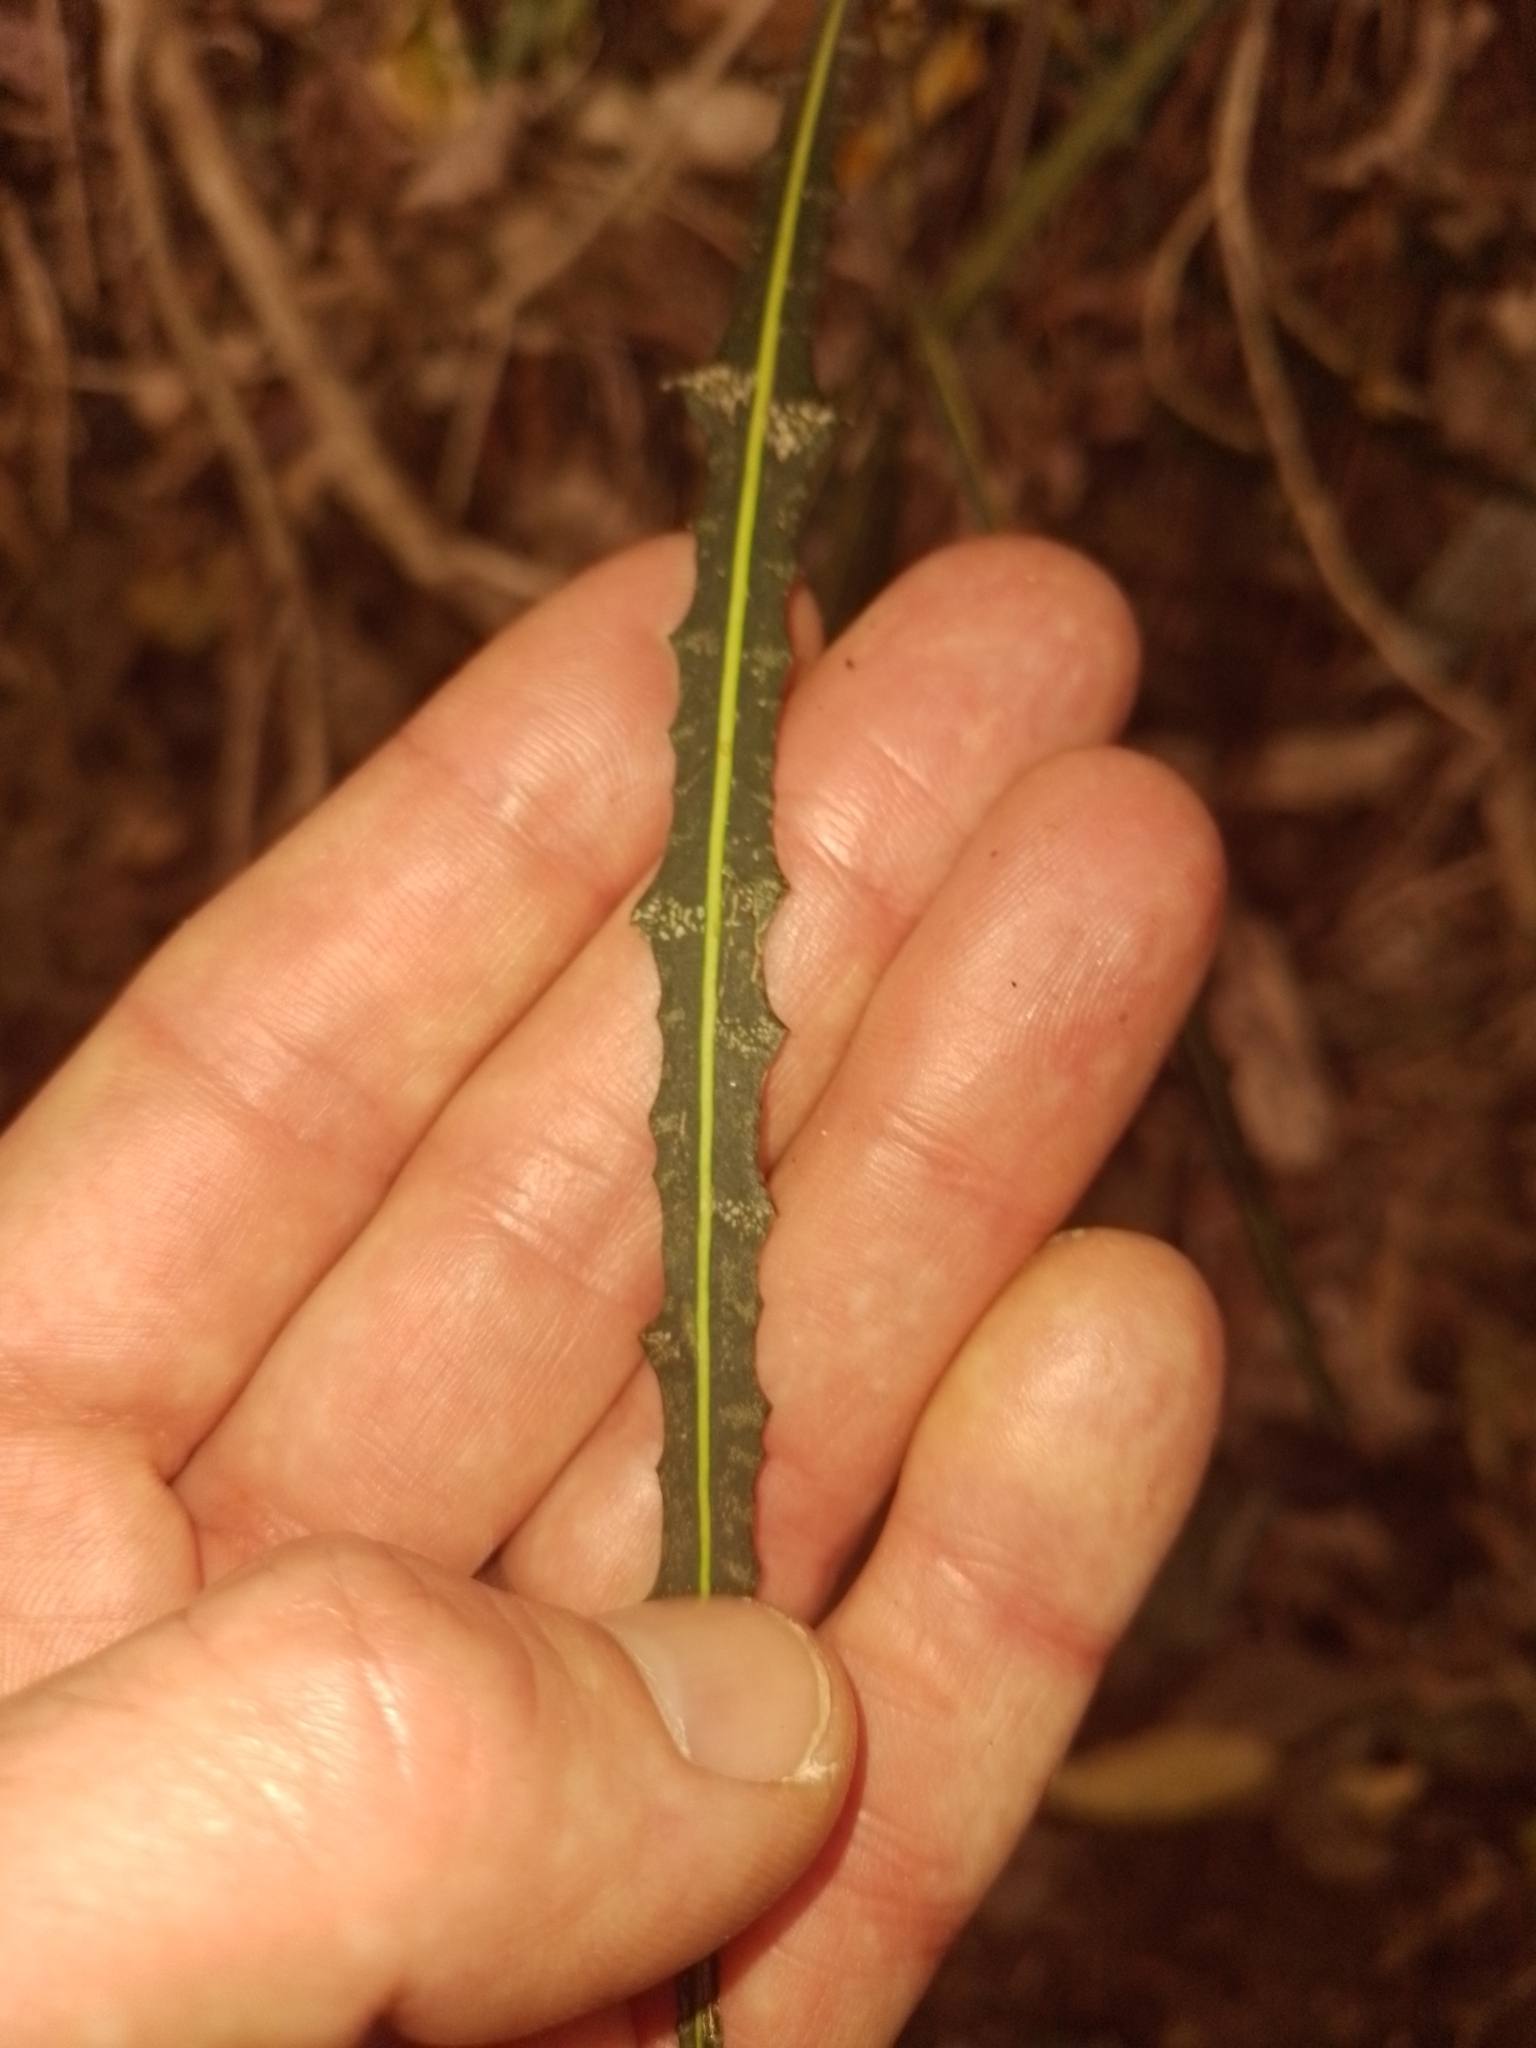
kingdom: Plantae
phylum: Tracheophyta
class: Magnoliopsida
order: Apiales
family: Araliaceae
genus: Pseudopanax
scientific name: Pseudopanax ferox
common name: Fierce lancewood
